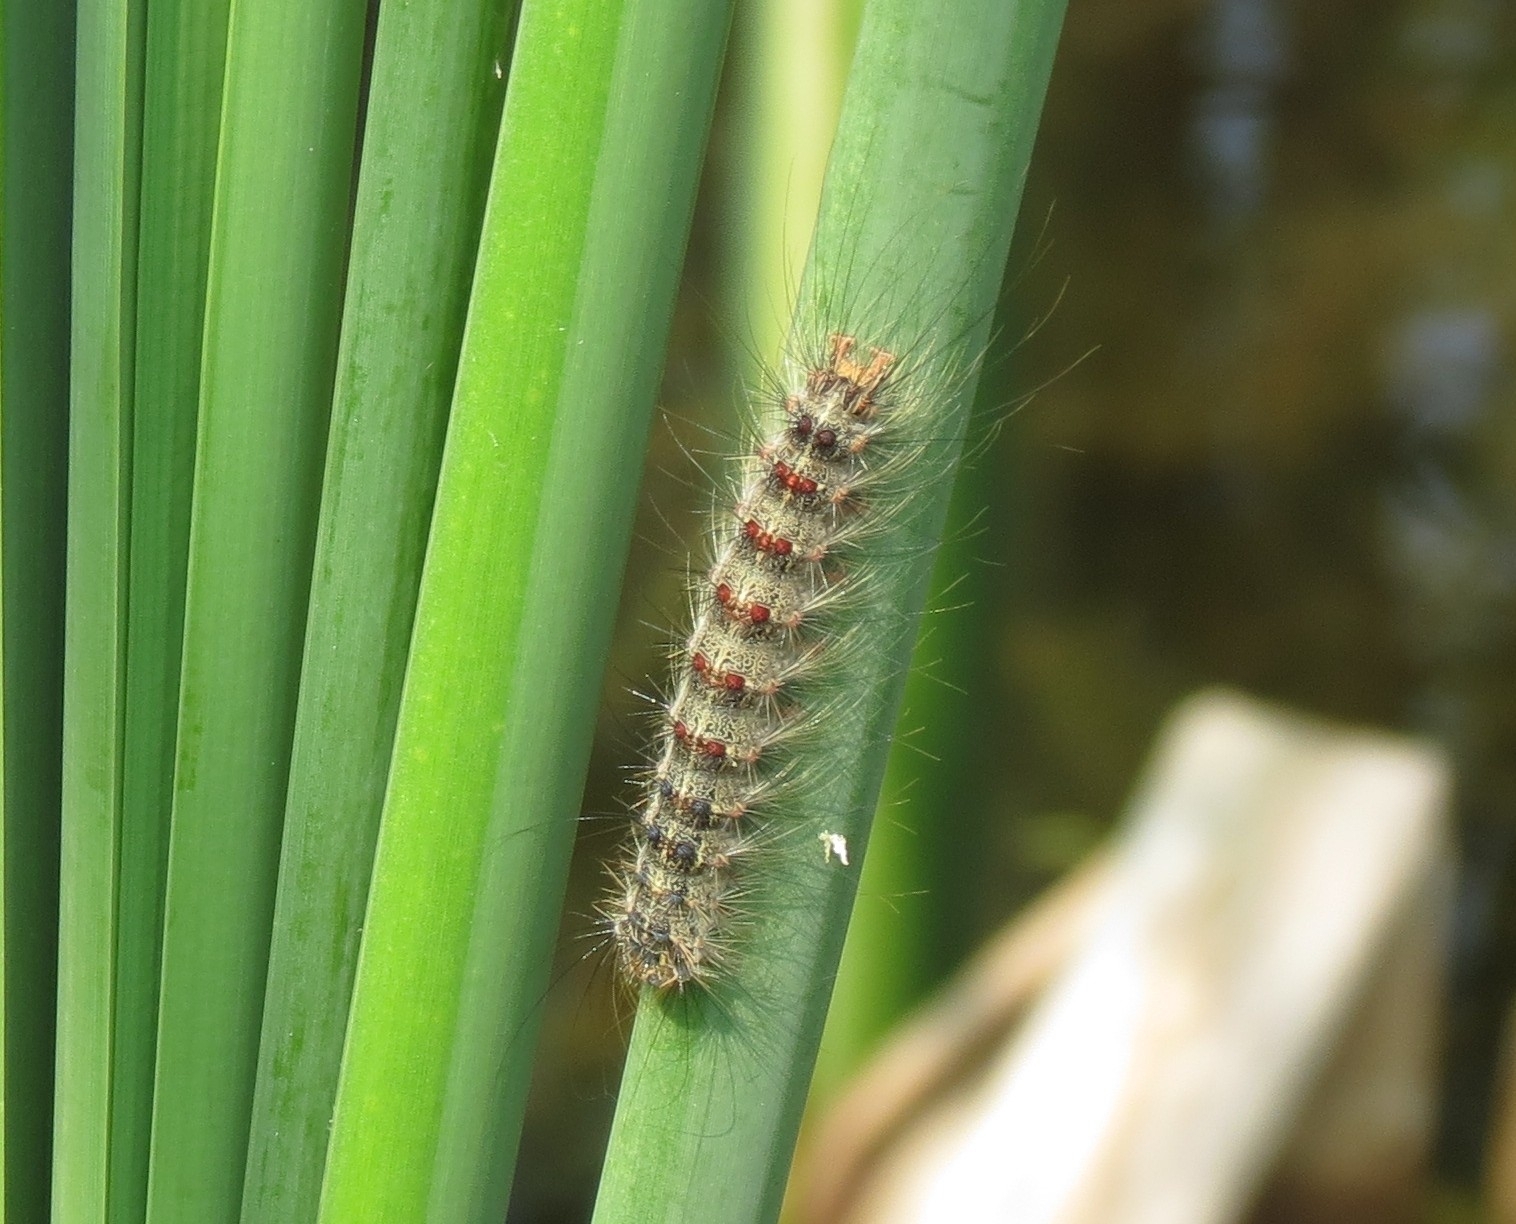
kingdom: Animalia
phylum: Arthropoda
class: Insecta
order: Lepidoptera
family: Erebidae
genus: Lymantria
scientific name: Lymantria dispar
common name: Gypsy moth
